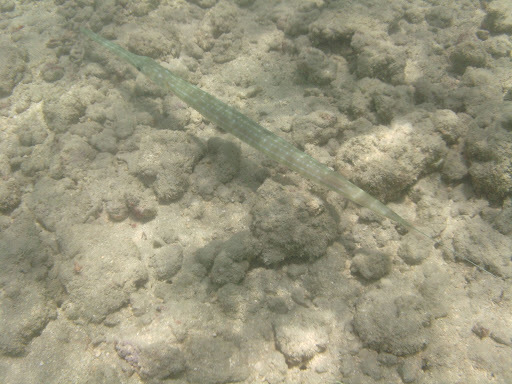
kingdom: Animalia
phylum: Chordata
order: Syngnathiformes
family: Fistulariidae
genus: Fistularia
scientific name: Fistularia commersonii
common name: Bluespotted cornetfish
